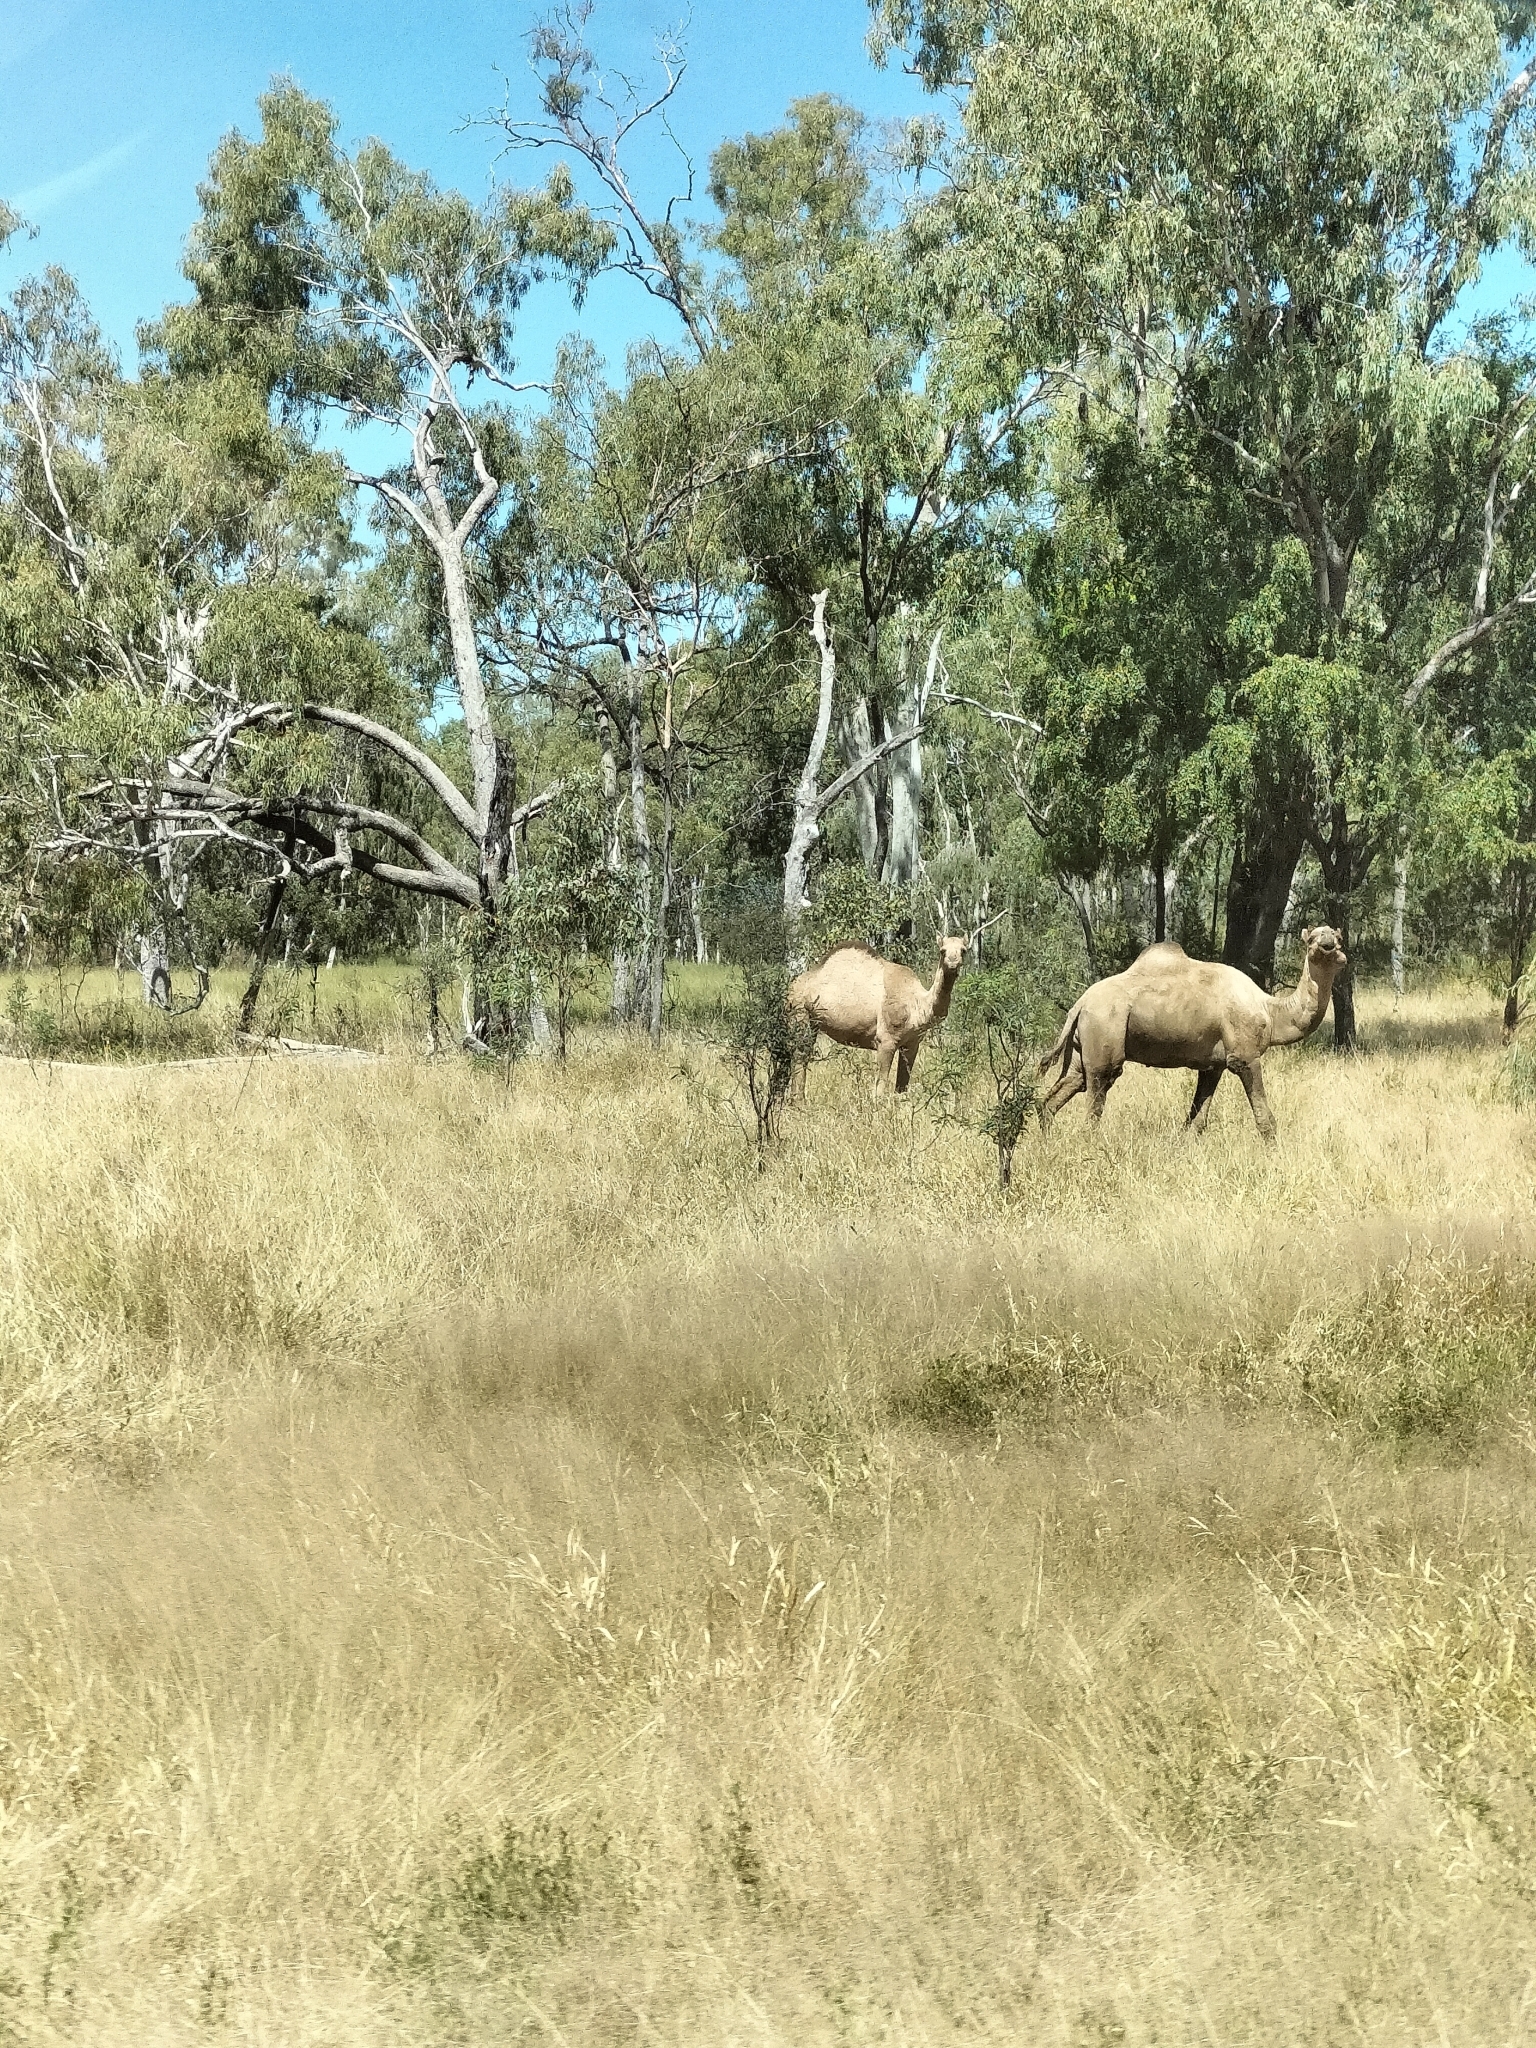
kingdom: Animalia
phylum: Chordata
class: Mammalia
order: Artiodactyla
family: Camelidae
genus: Camelus
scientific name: Camelus dromedarius
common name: One-humped camel
